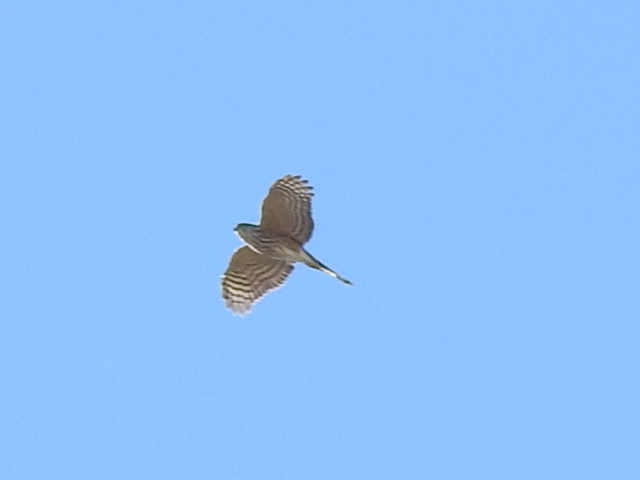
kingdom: Animalia
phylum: Chordata
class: Aves
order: Accipitriformes
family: Accipitridae
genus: Accipiter
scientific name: Accipiter striatus
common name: Sharp-shinned hawk
